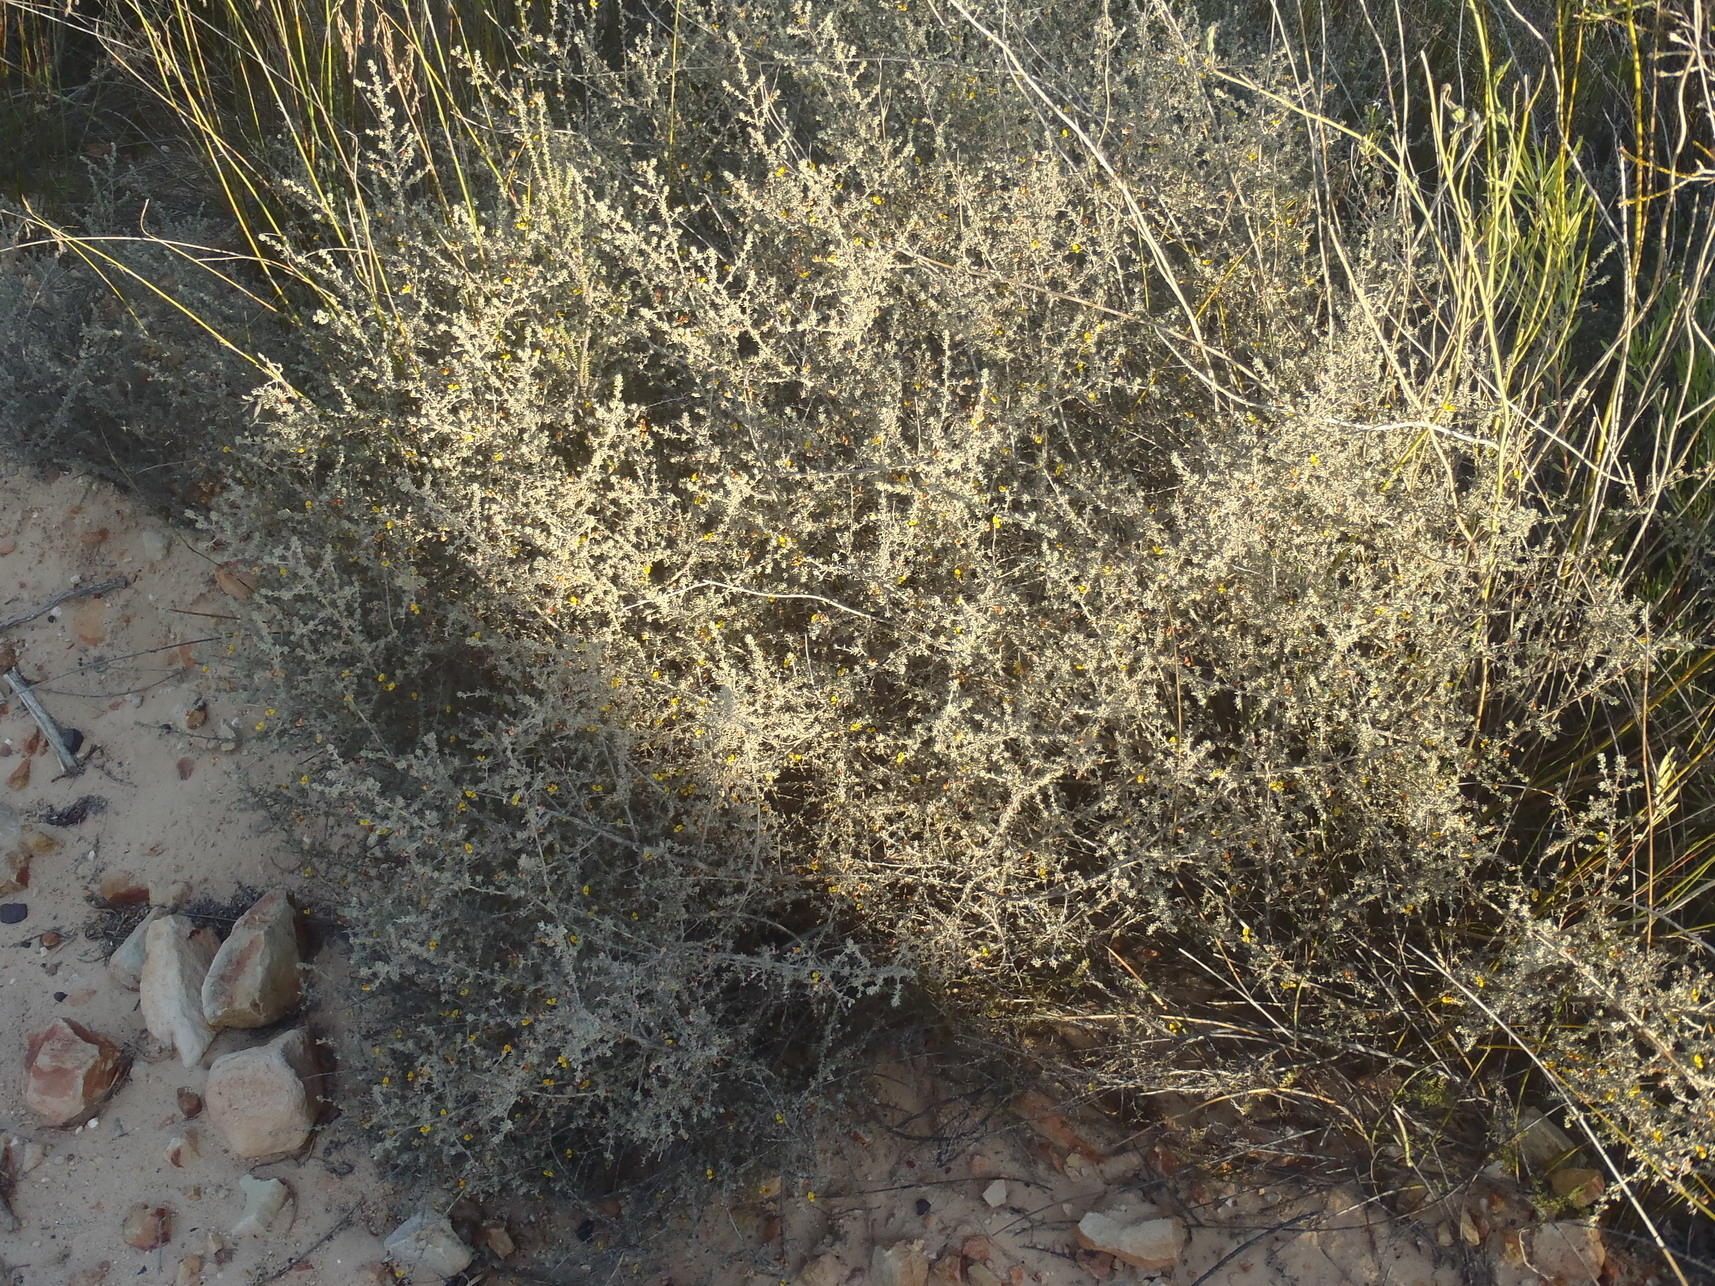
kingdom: Plantae
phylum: Tracheophyta
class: Magnoliopsida
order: Fabales
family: Fabaceae
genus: Aspalathus
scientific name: Aspalathus rubens
